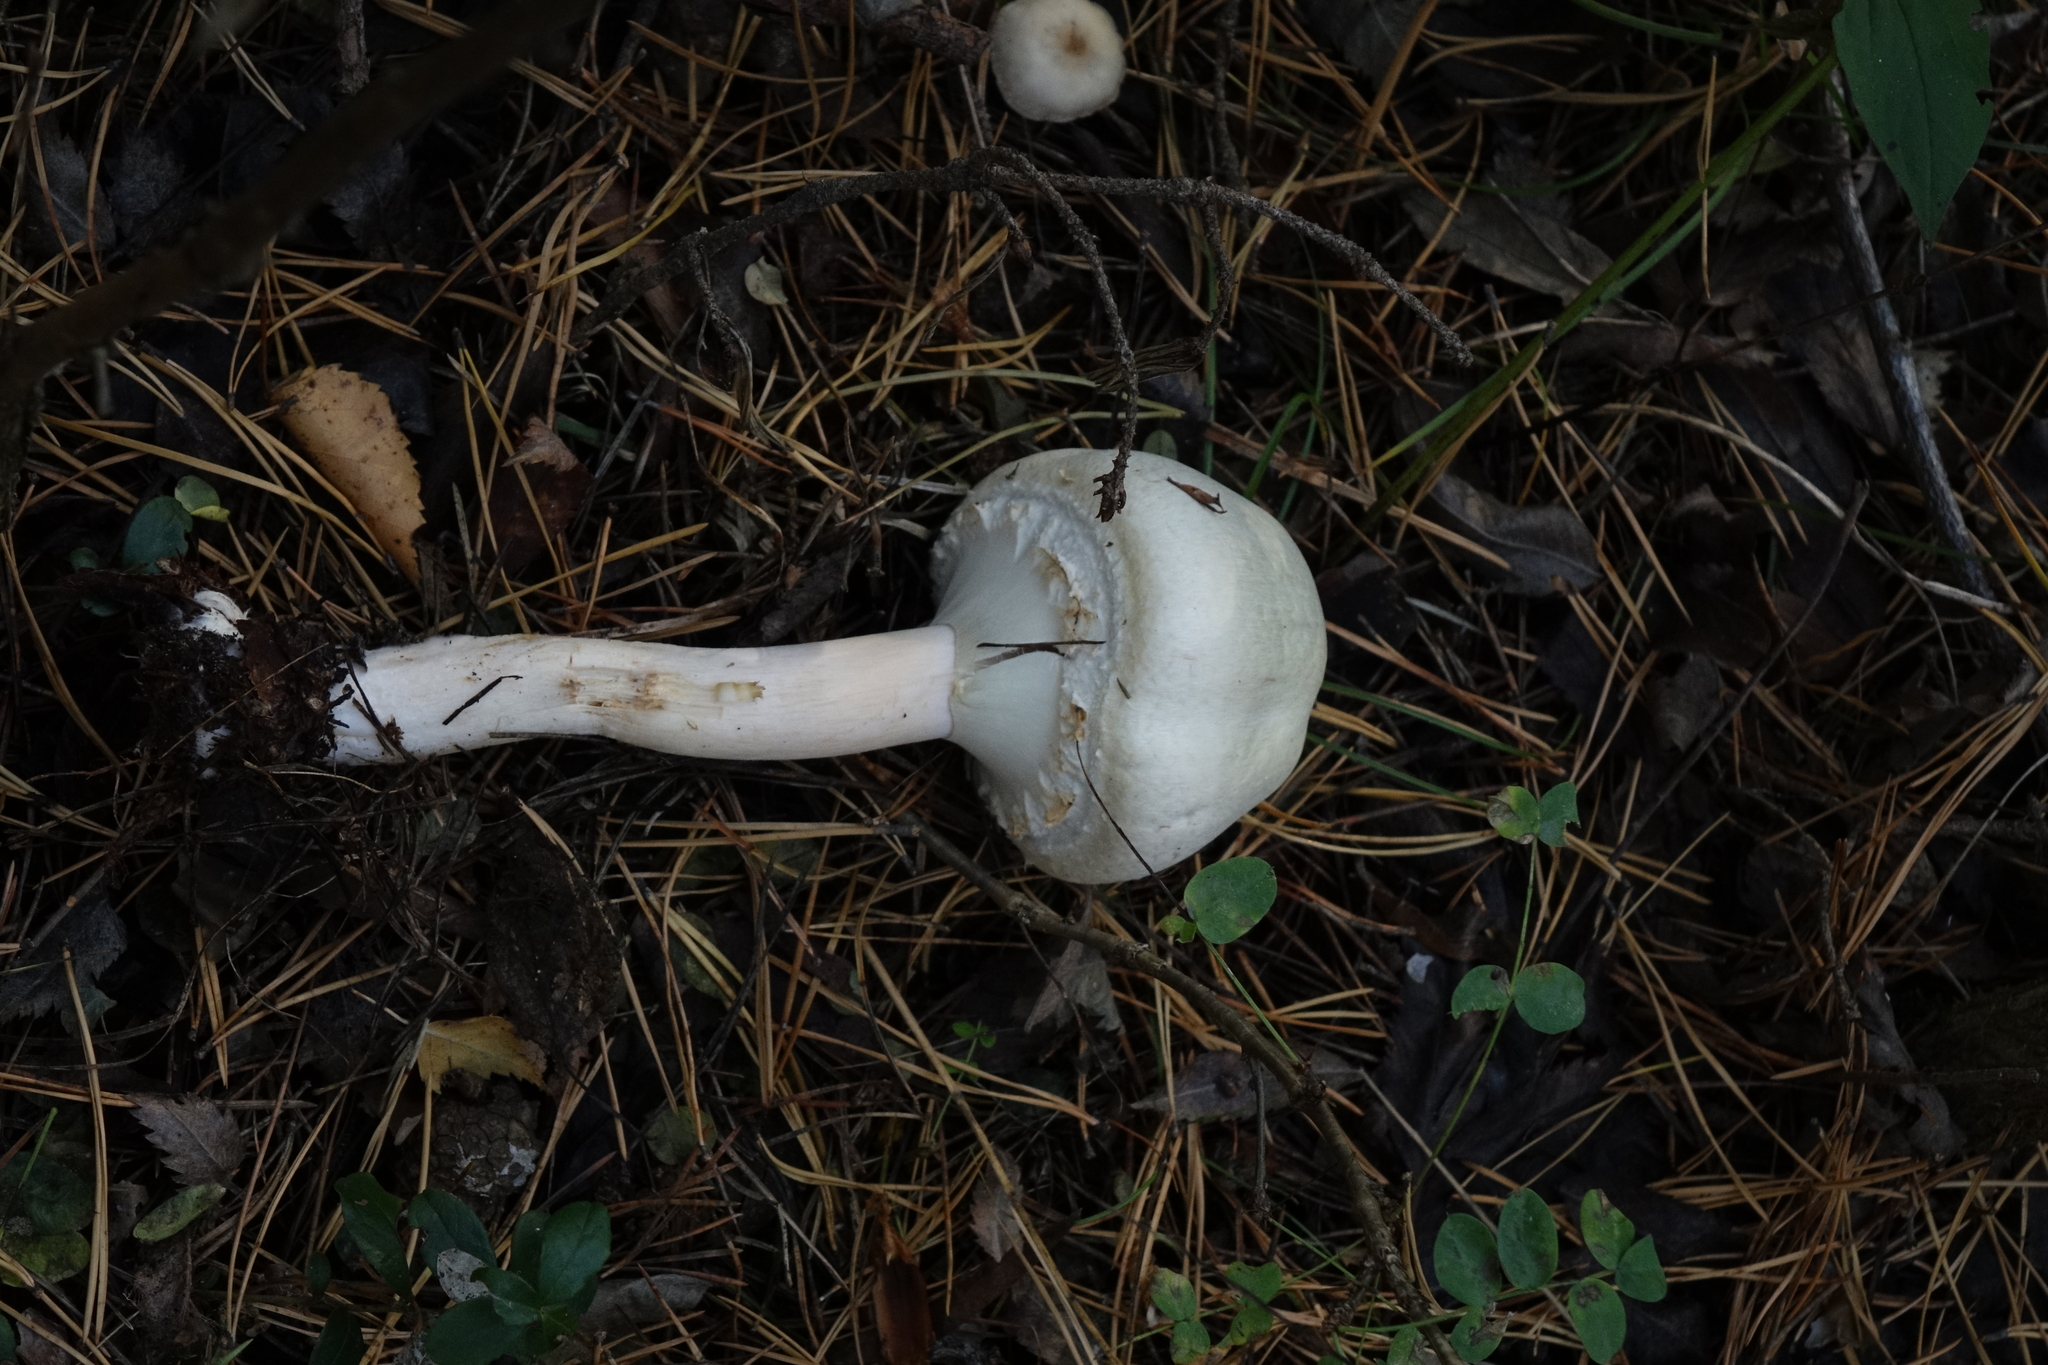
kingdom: Fungi
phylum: Basidiomycota
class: Agaricomycetes
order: Agaricales
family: Agaricaceae
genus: Agaricus
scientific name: Agaricus sylvicola
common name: Wood mushroom
